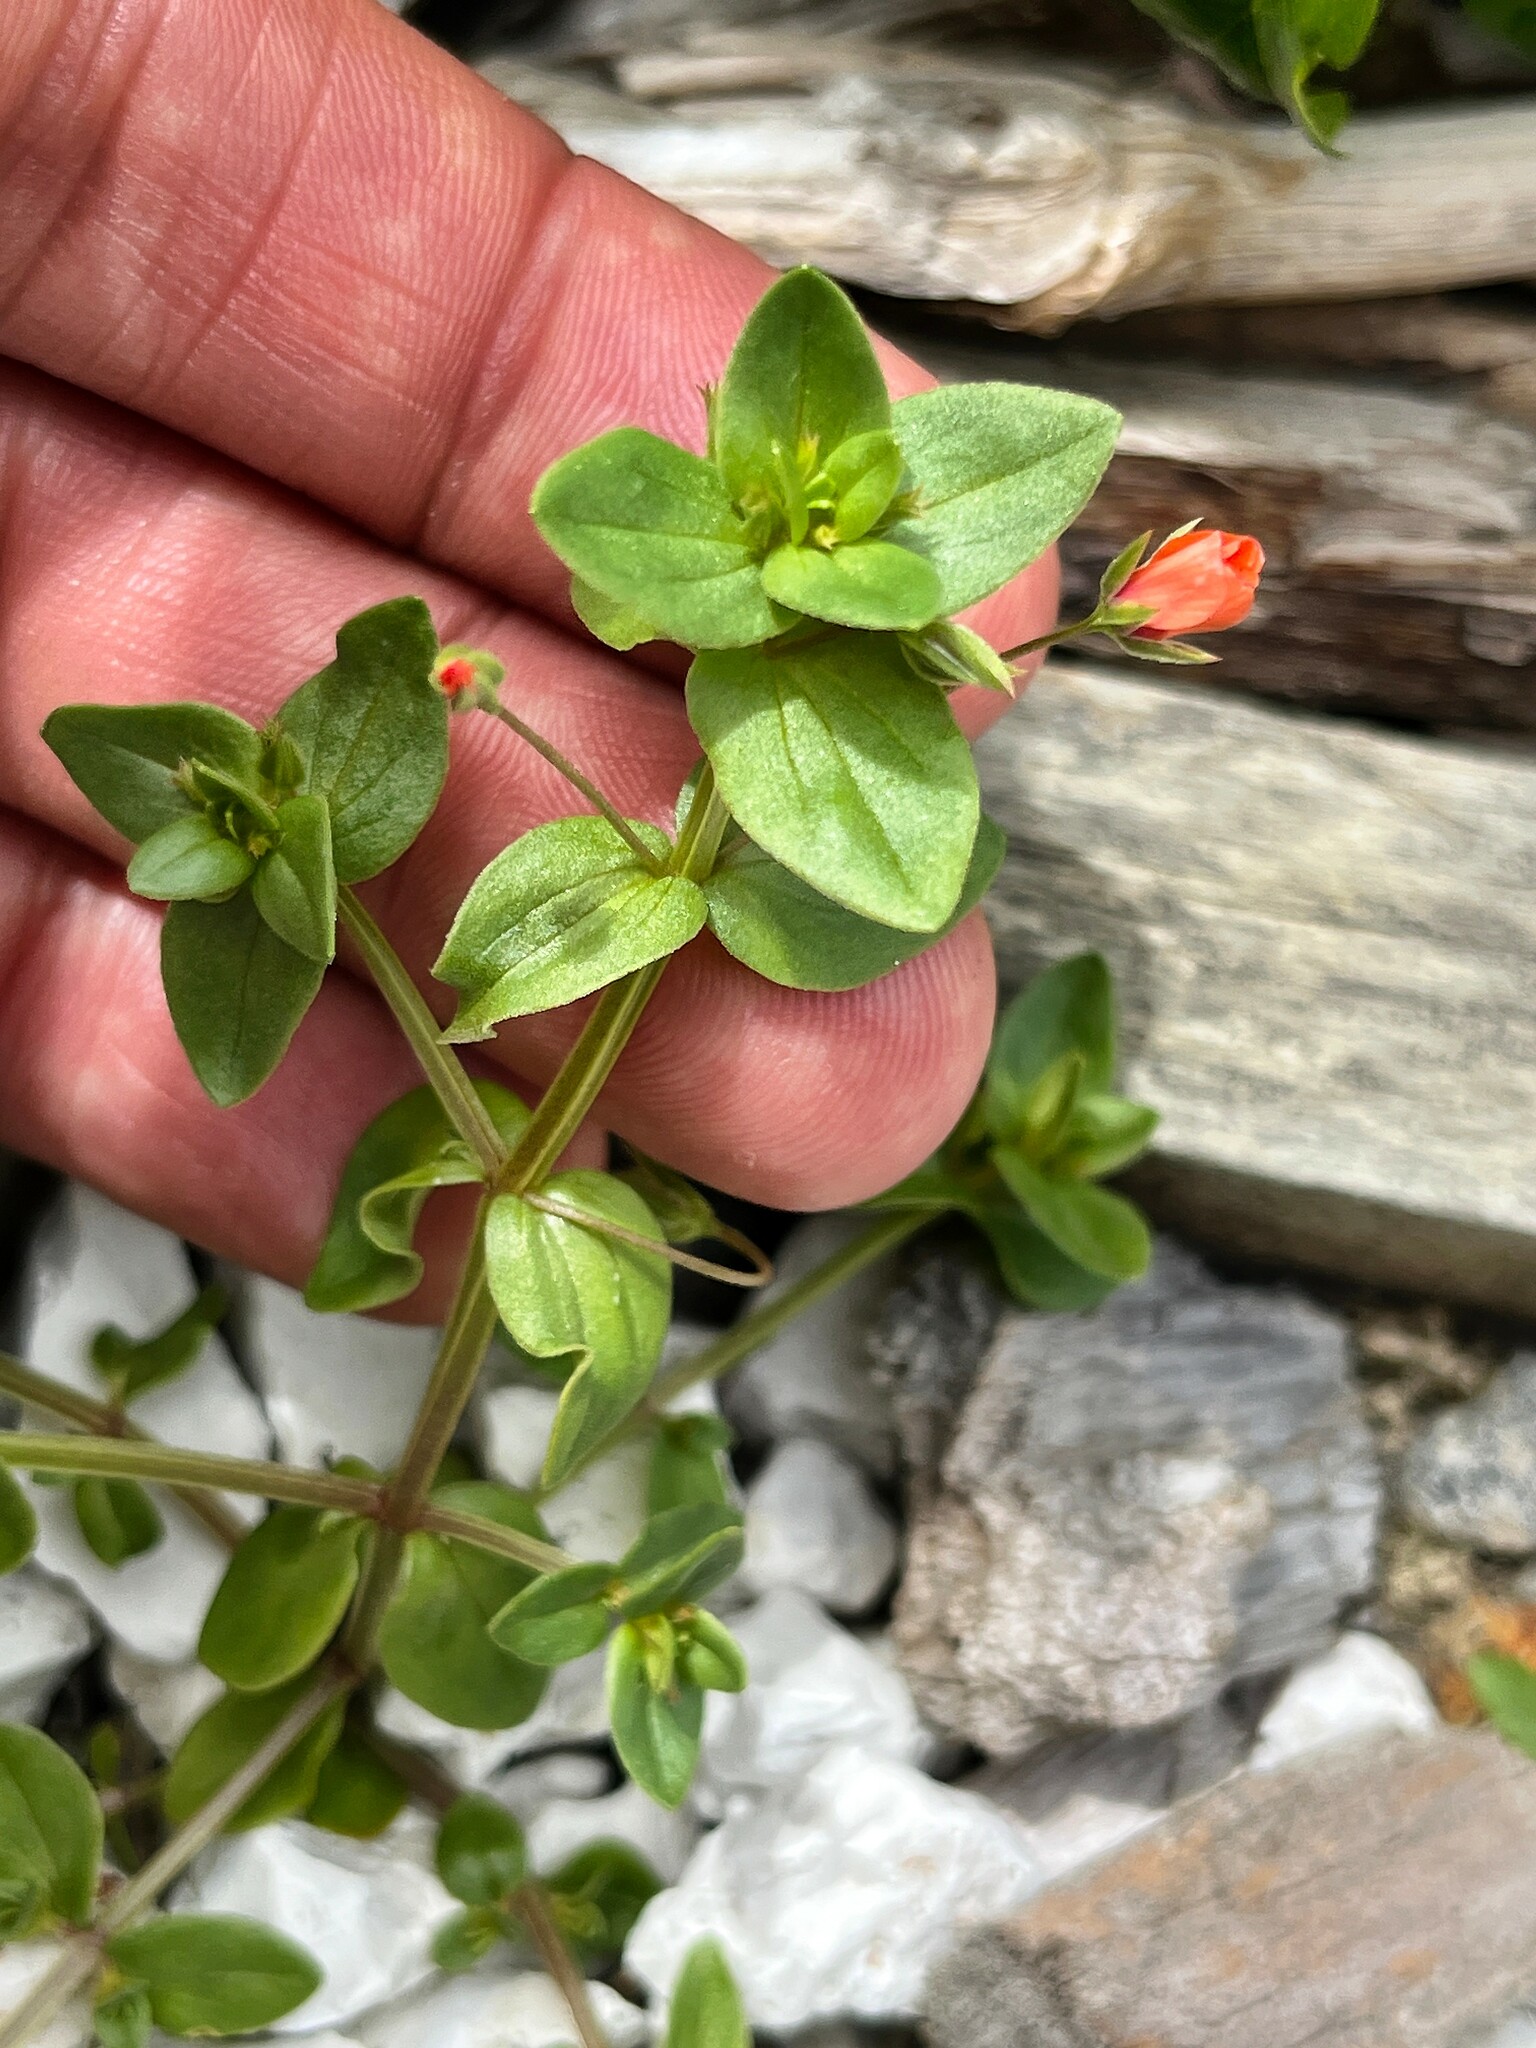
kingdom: Plantae
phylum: Tracheophyta
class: Magnoliopsida
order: Ericales
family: Primulaceae
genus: Lysimachia
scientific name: Lysimachia arvensis
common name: Scarlet pimpernel
